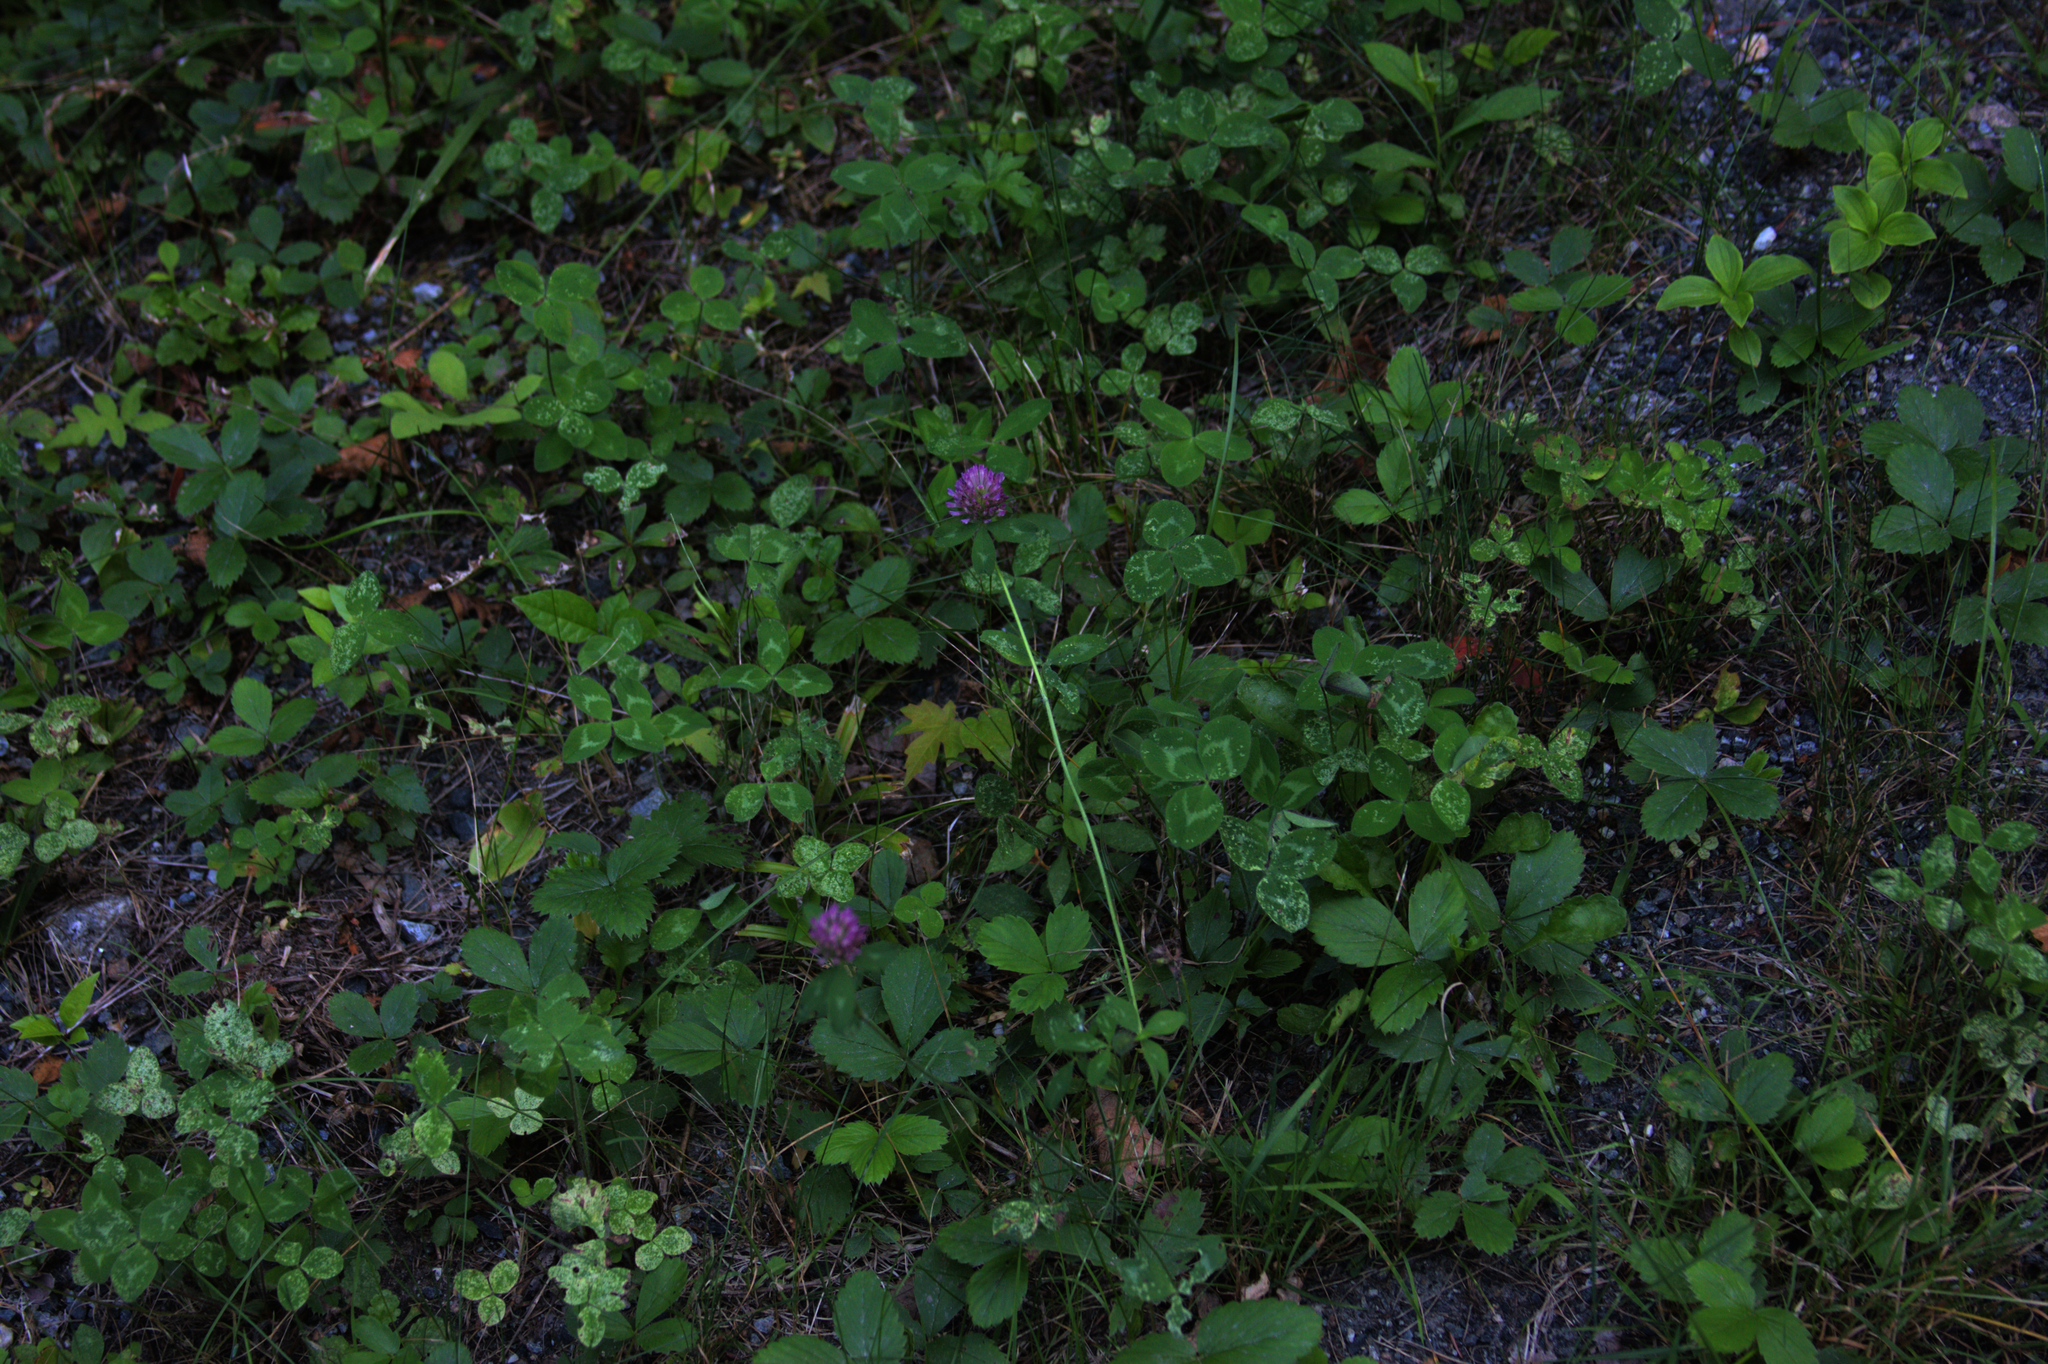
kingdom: Plantae
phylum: Tracheophyta
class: Magnoliopsida
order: Fabales
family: Fabaceae
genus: Trifolium
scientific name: Trifolium pratense
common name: Red clover
